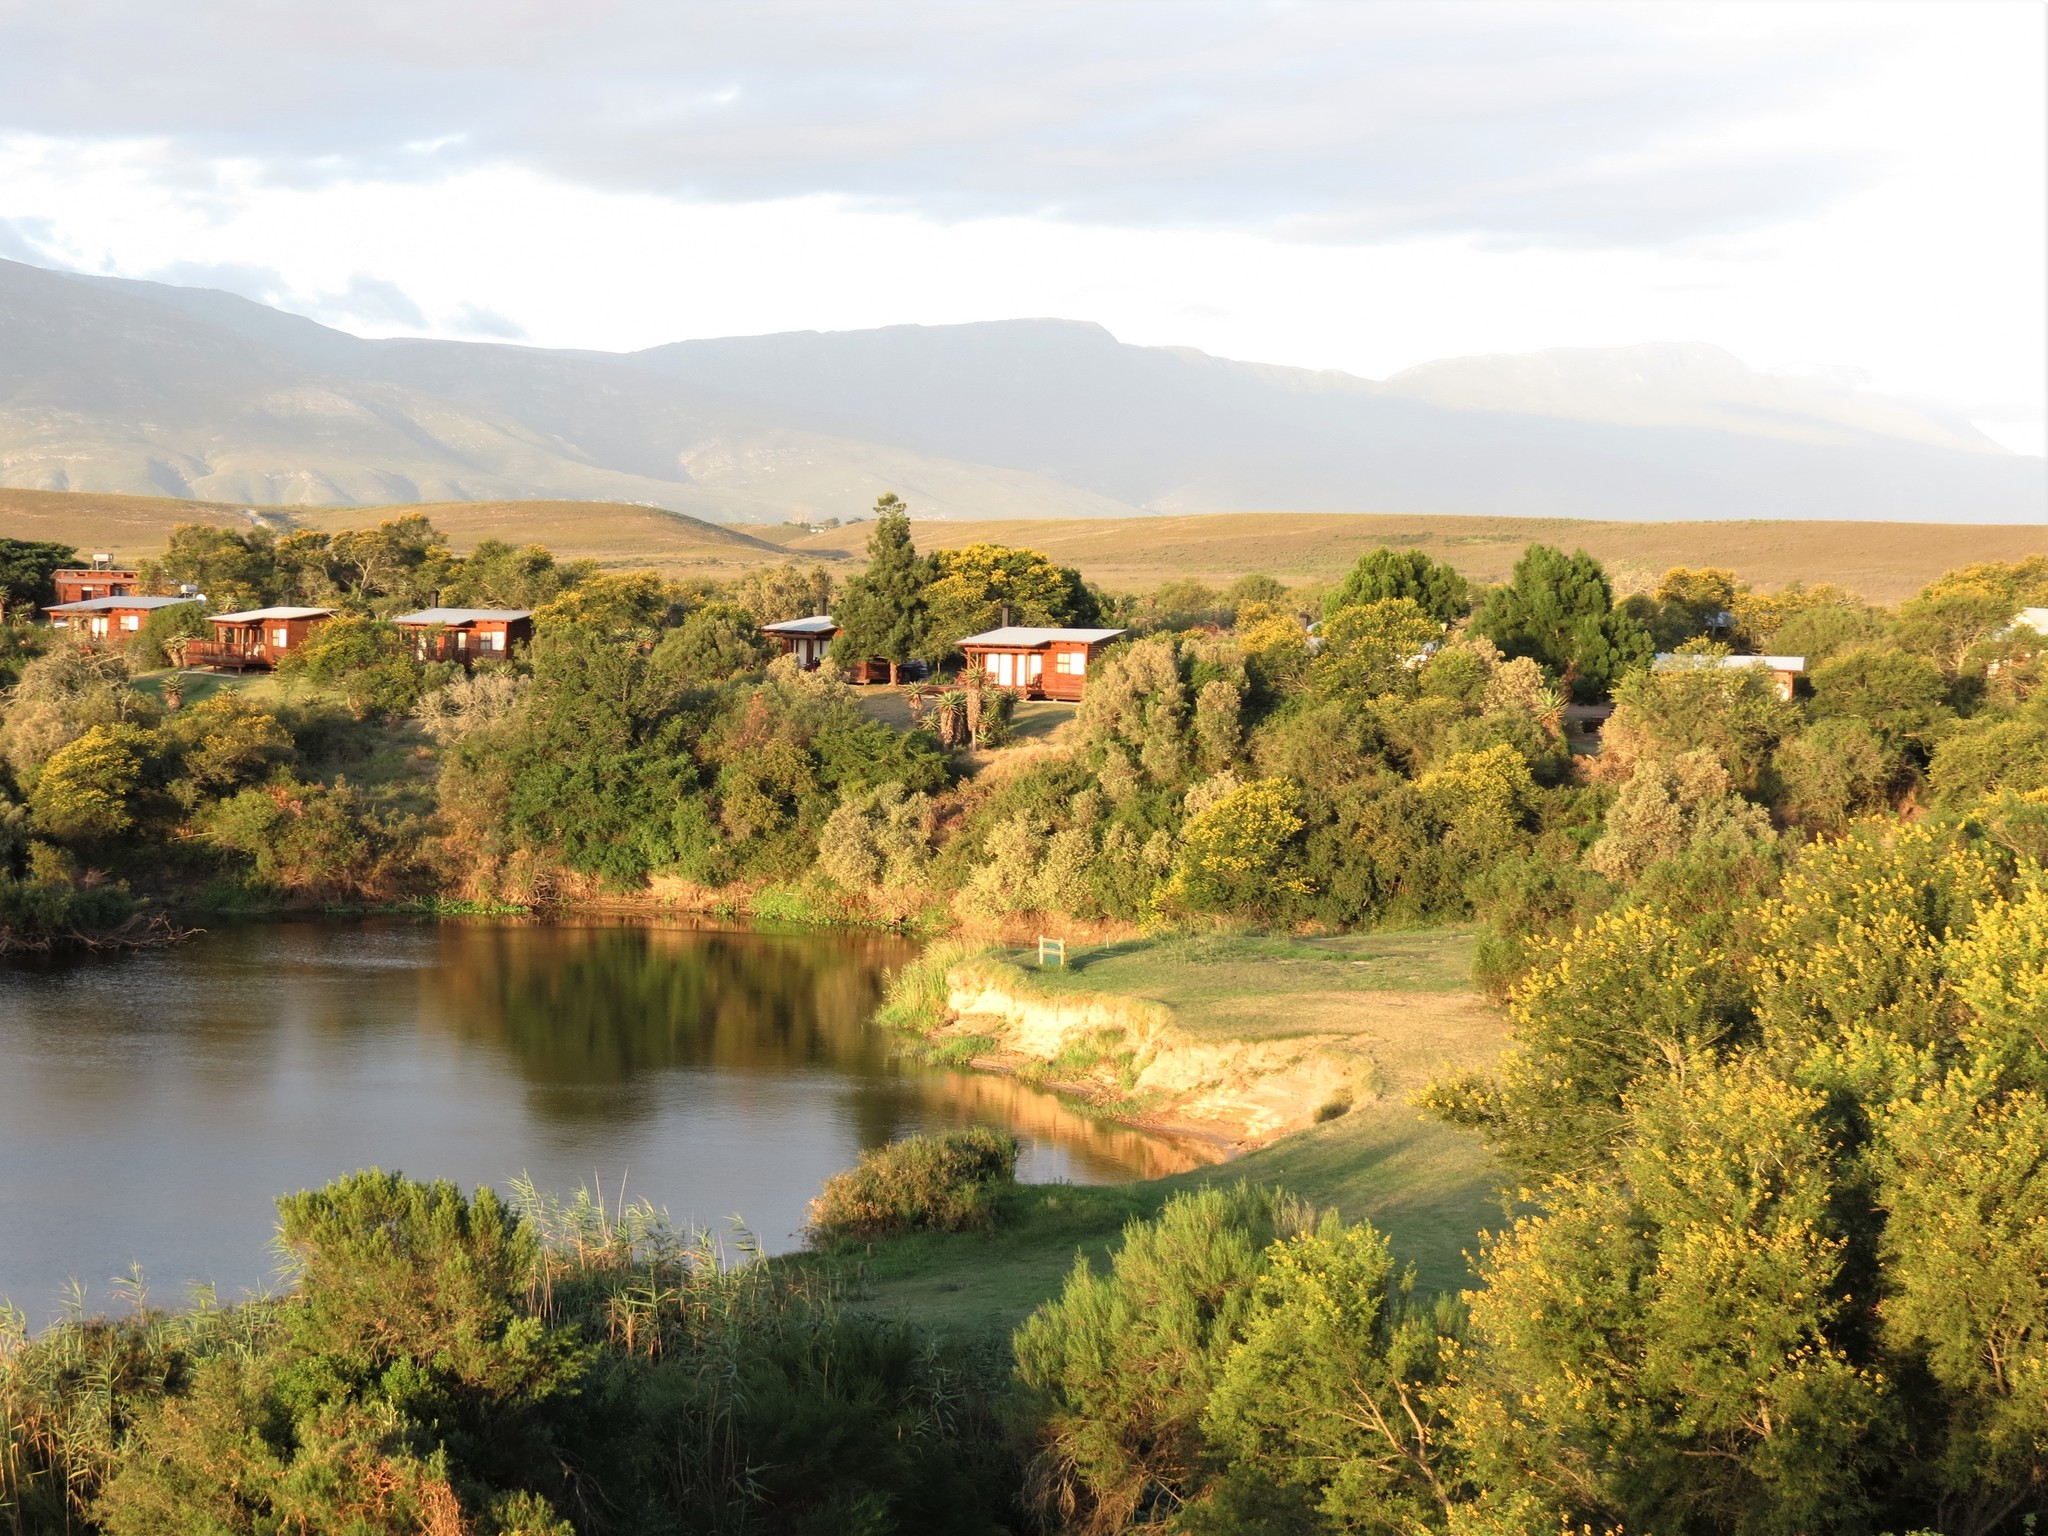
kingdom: Plantae
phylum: Tracheophyta
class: Magnoliopsida
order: Fabales
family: Fabaceae
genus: Vachellia
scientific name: Vachellia karroo
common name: Sweet thorn
